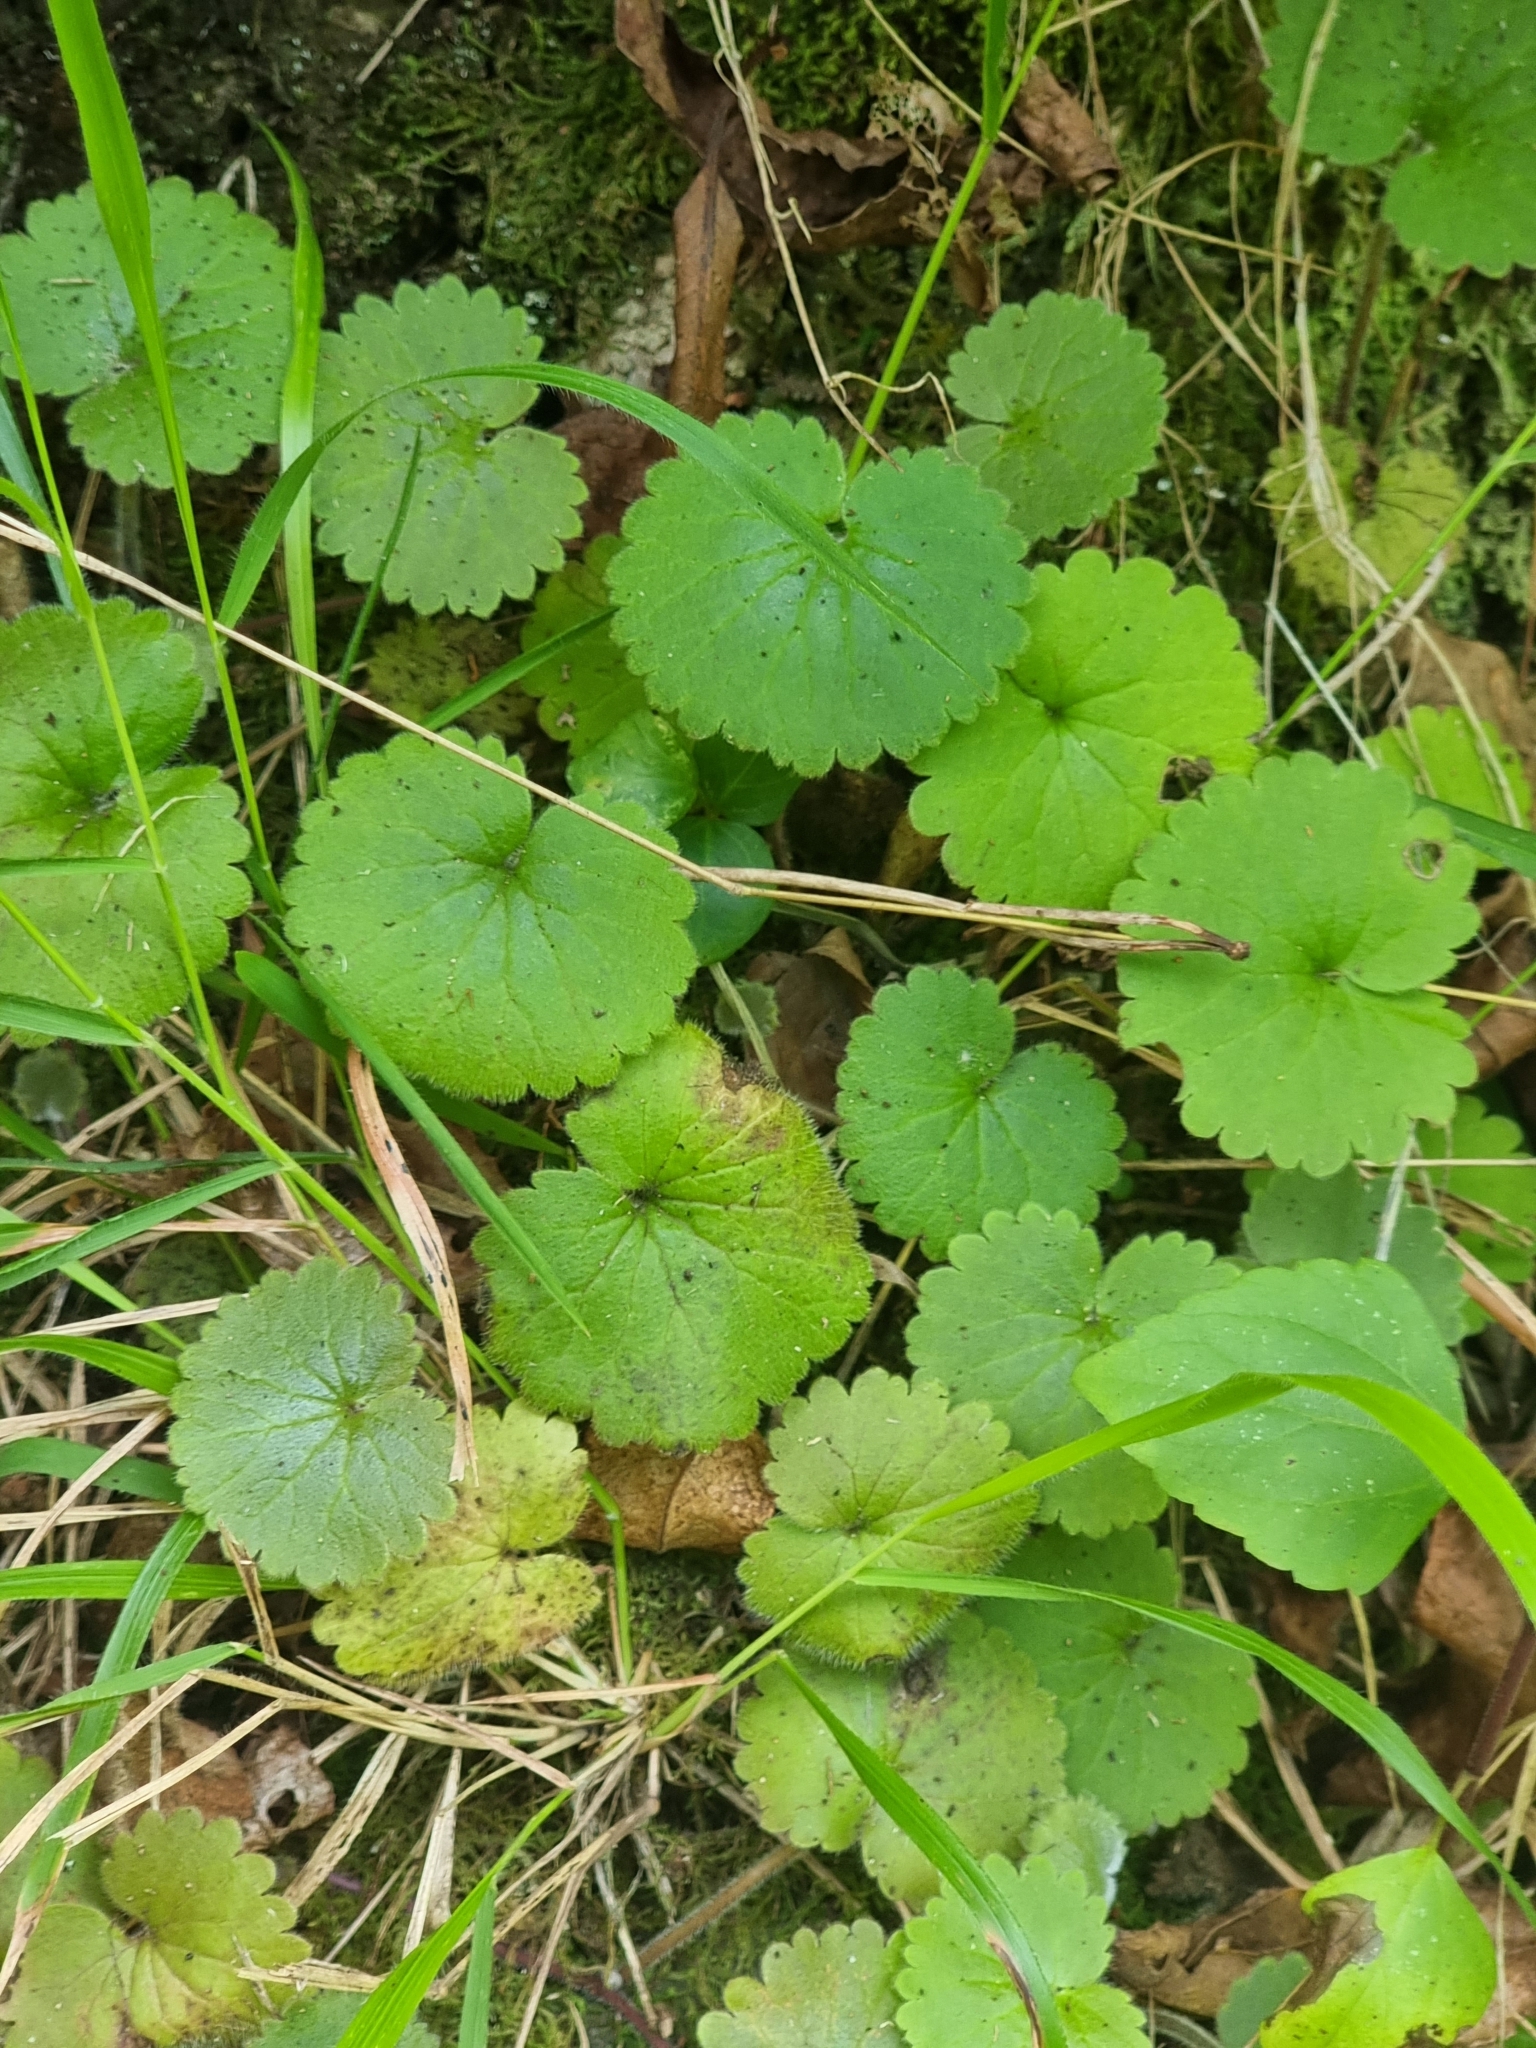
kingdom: Plantae
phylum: Tracheophyta
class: Magnoliopsida
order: Lamiales
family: Plantaginaceae
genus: Sibthorpia
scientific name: Sibthorpia peregrina
